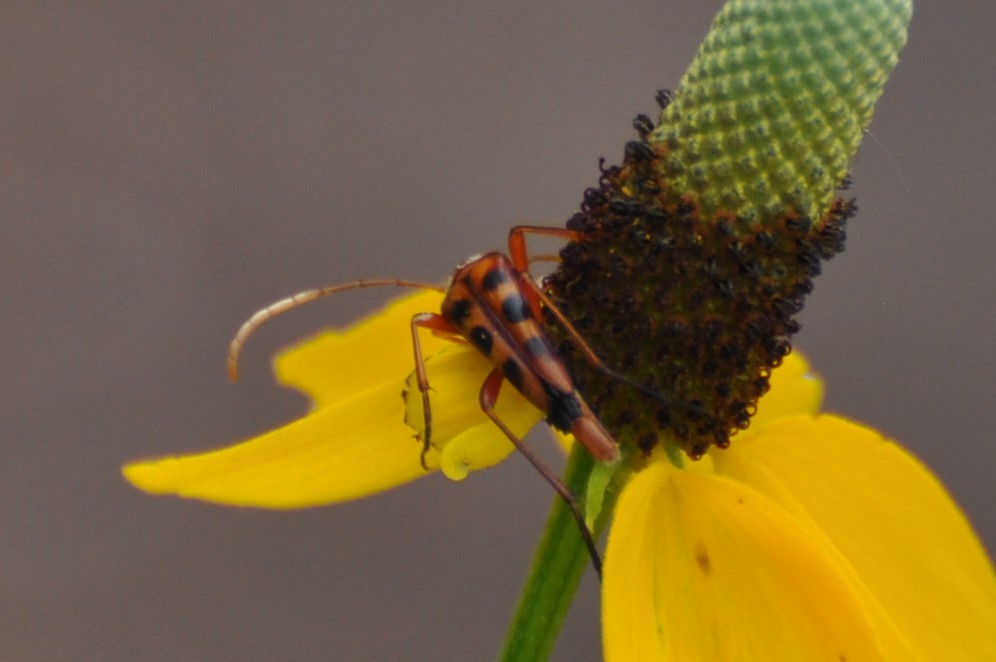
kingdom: Animalia
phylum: Arthropoda
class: Insecta
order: Coleoptera
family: Cerambycidae
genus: Strangalia
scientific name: Strangalia sexnotata
